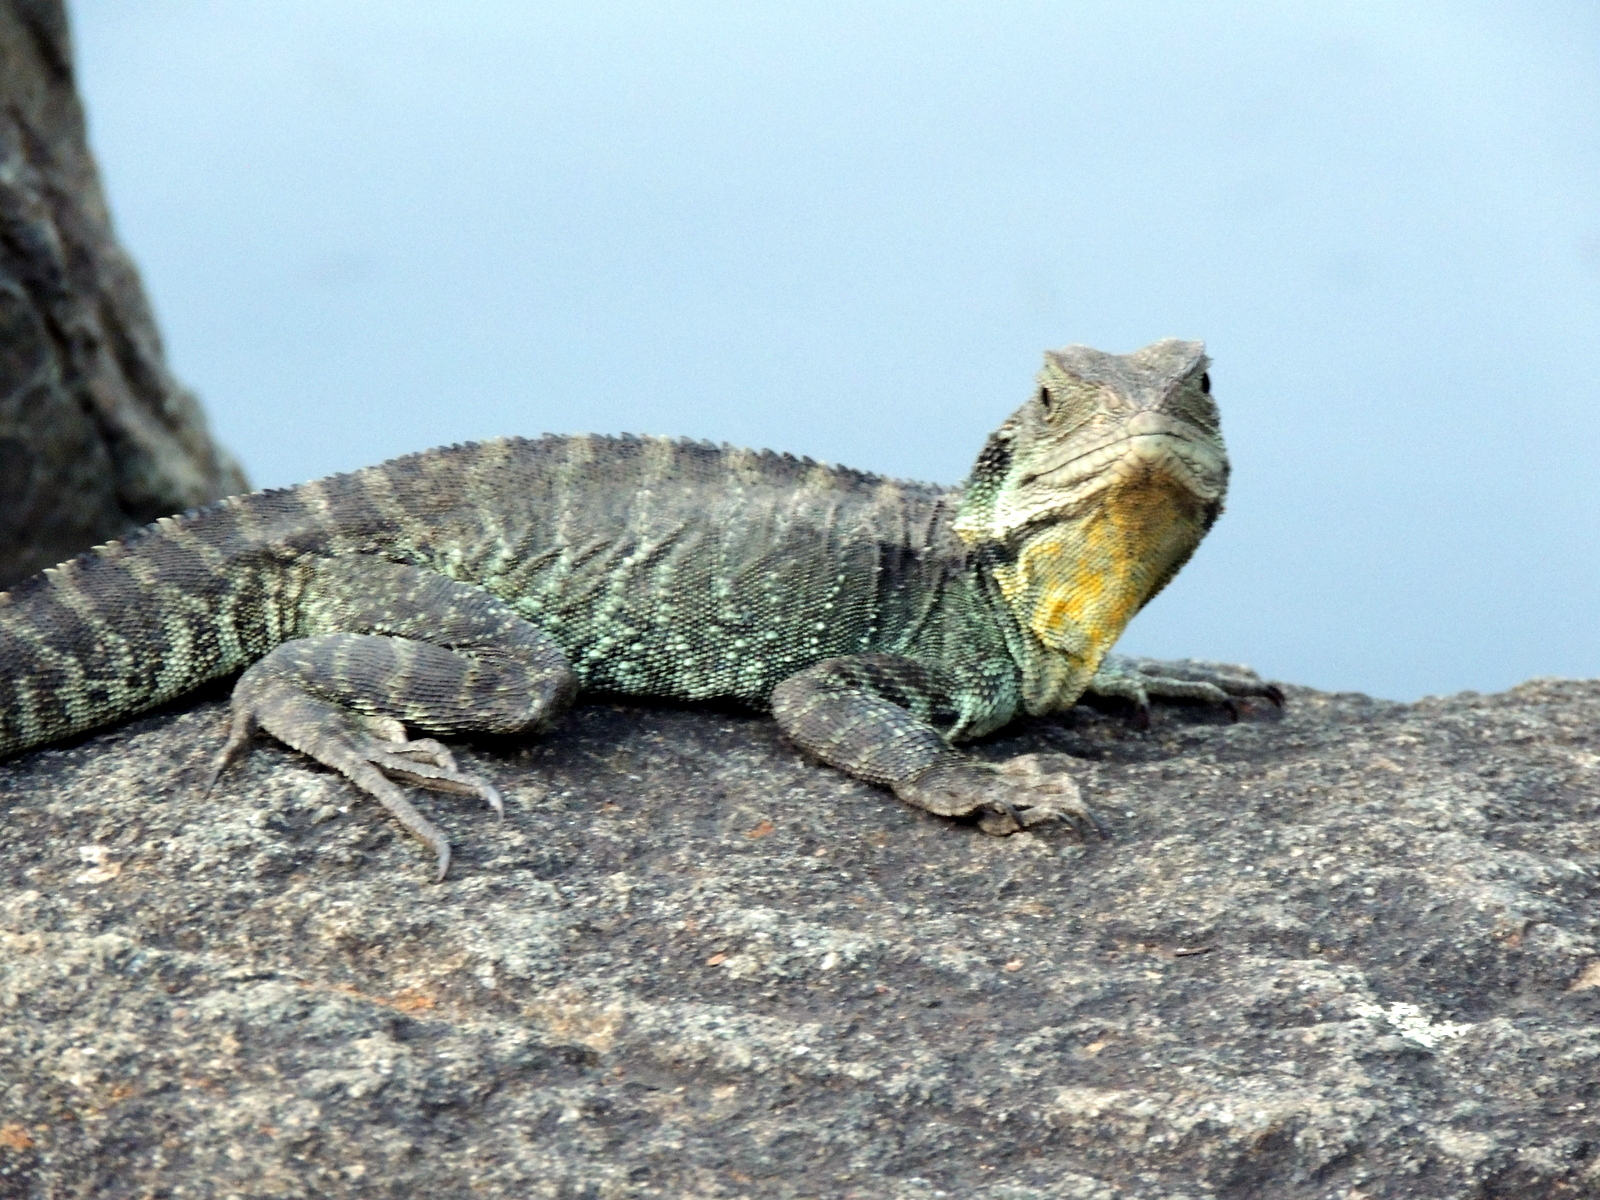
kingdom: Animalia
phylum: Chordata
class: Squamata
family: Agamidae
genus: Intellagama
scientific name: Intellagama lesueurii
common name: Eastern water dragon
